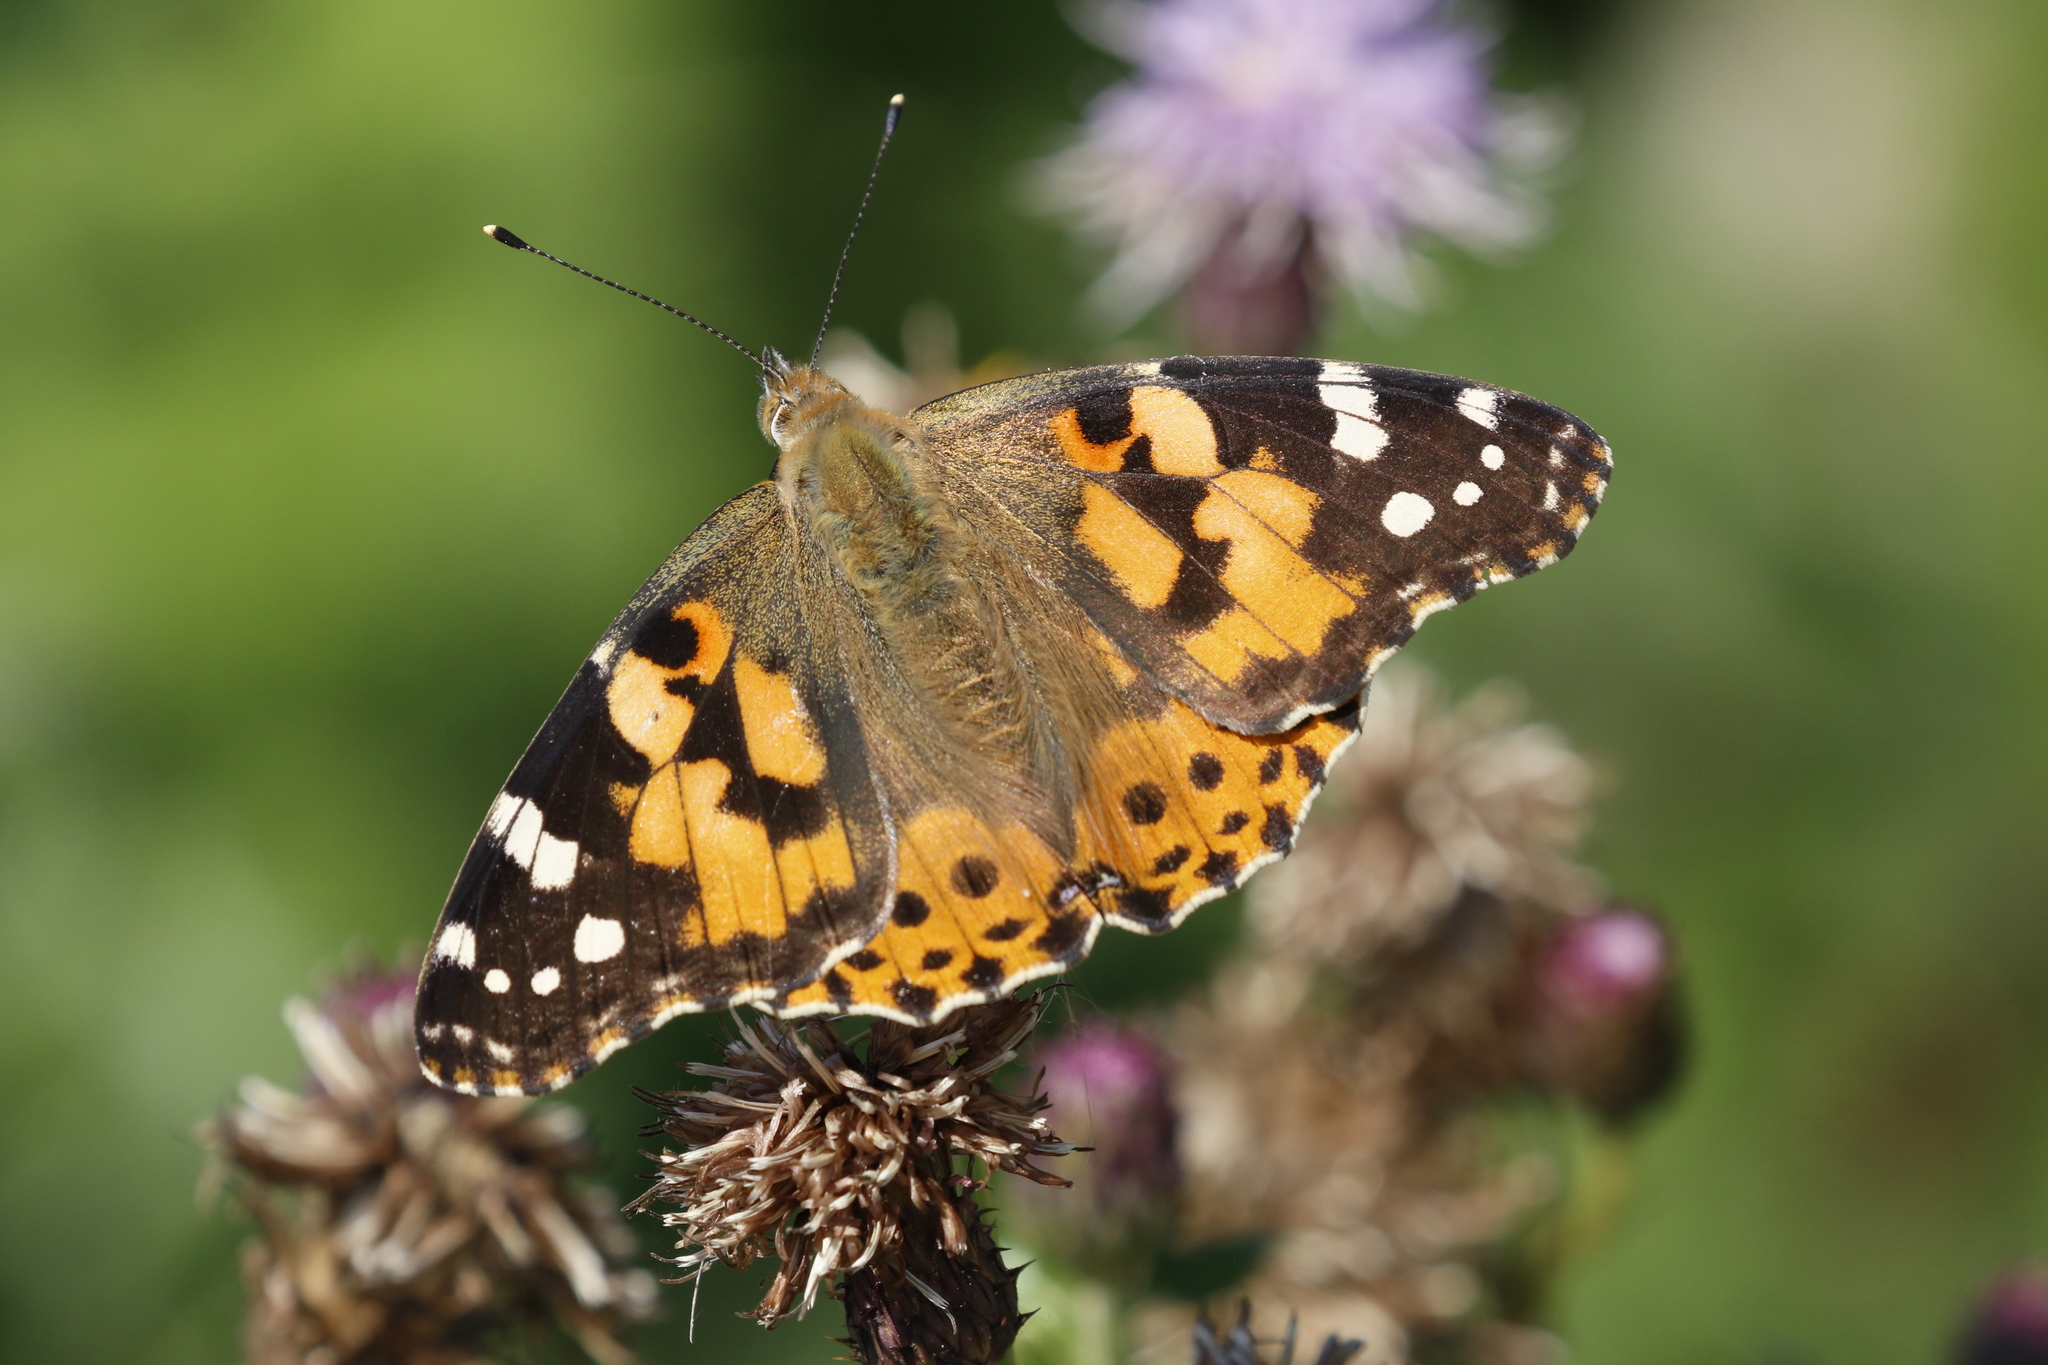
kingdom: Animalia
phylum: Arthropoda
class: Insecta
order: Lepidoptera
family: Nymphalidae
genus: Vanessa
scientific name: Vanessa cardui
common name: Painted lady
